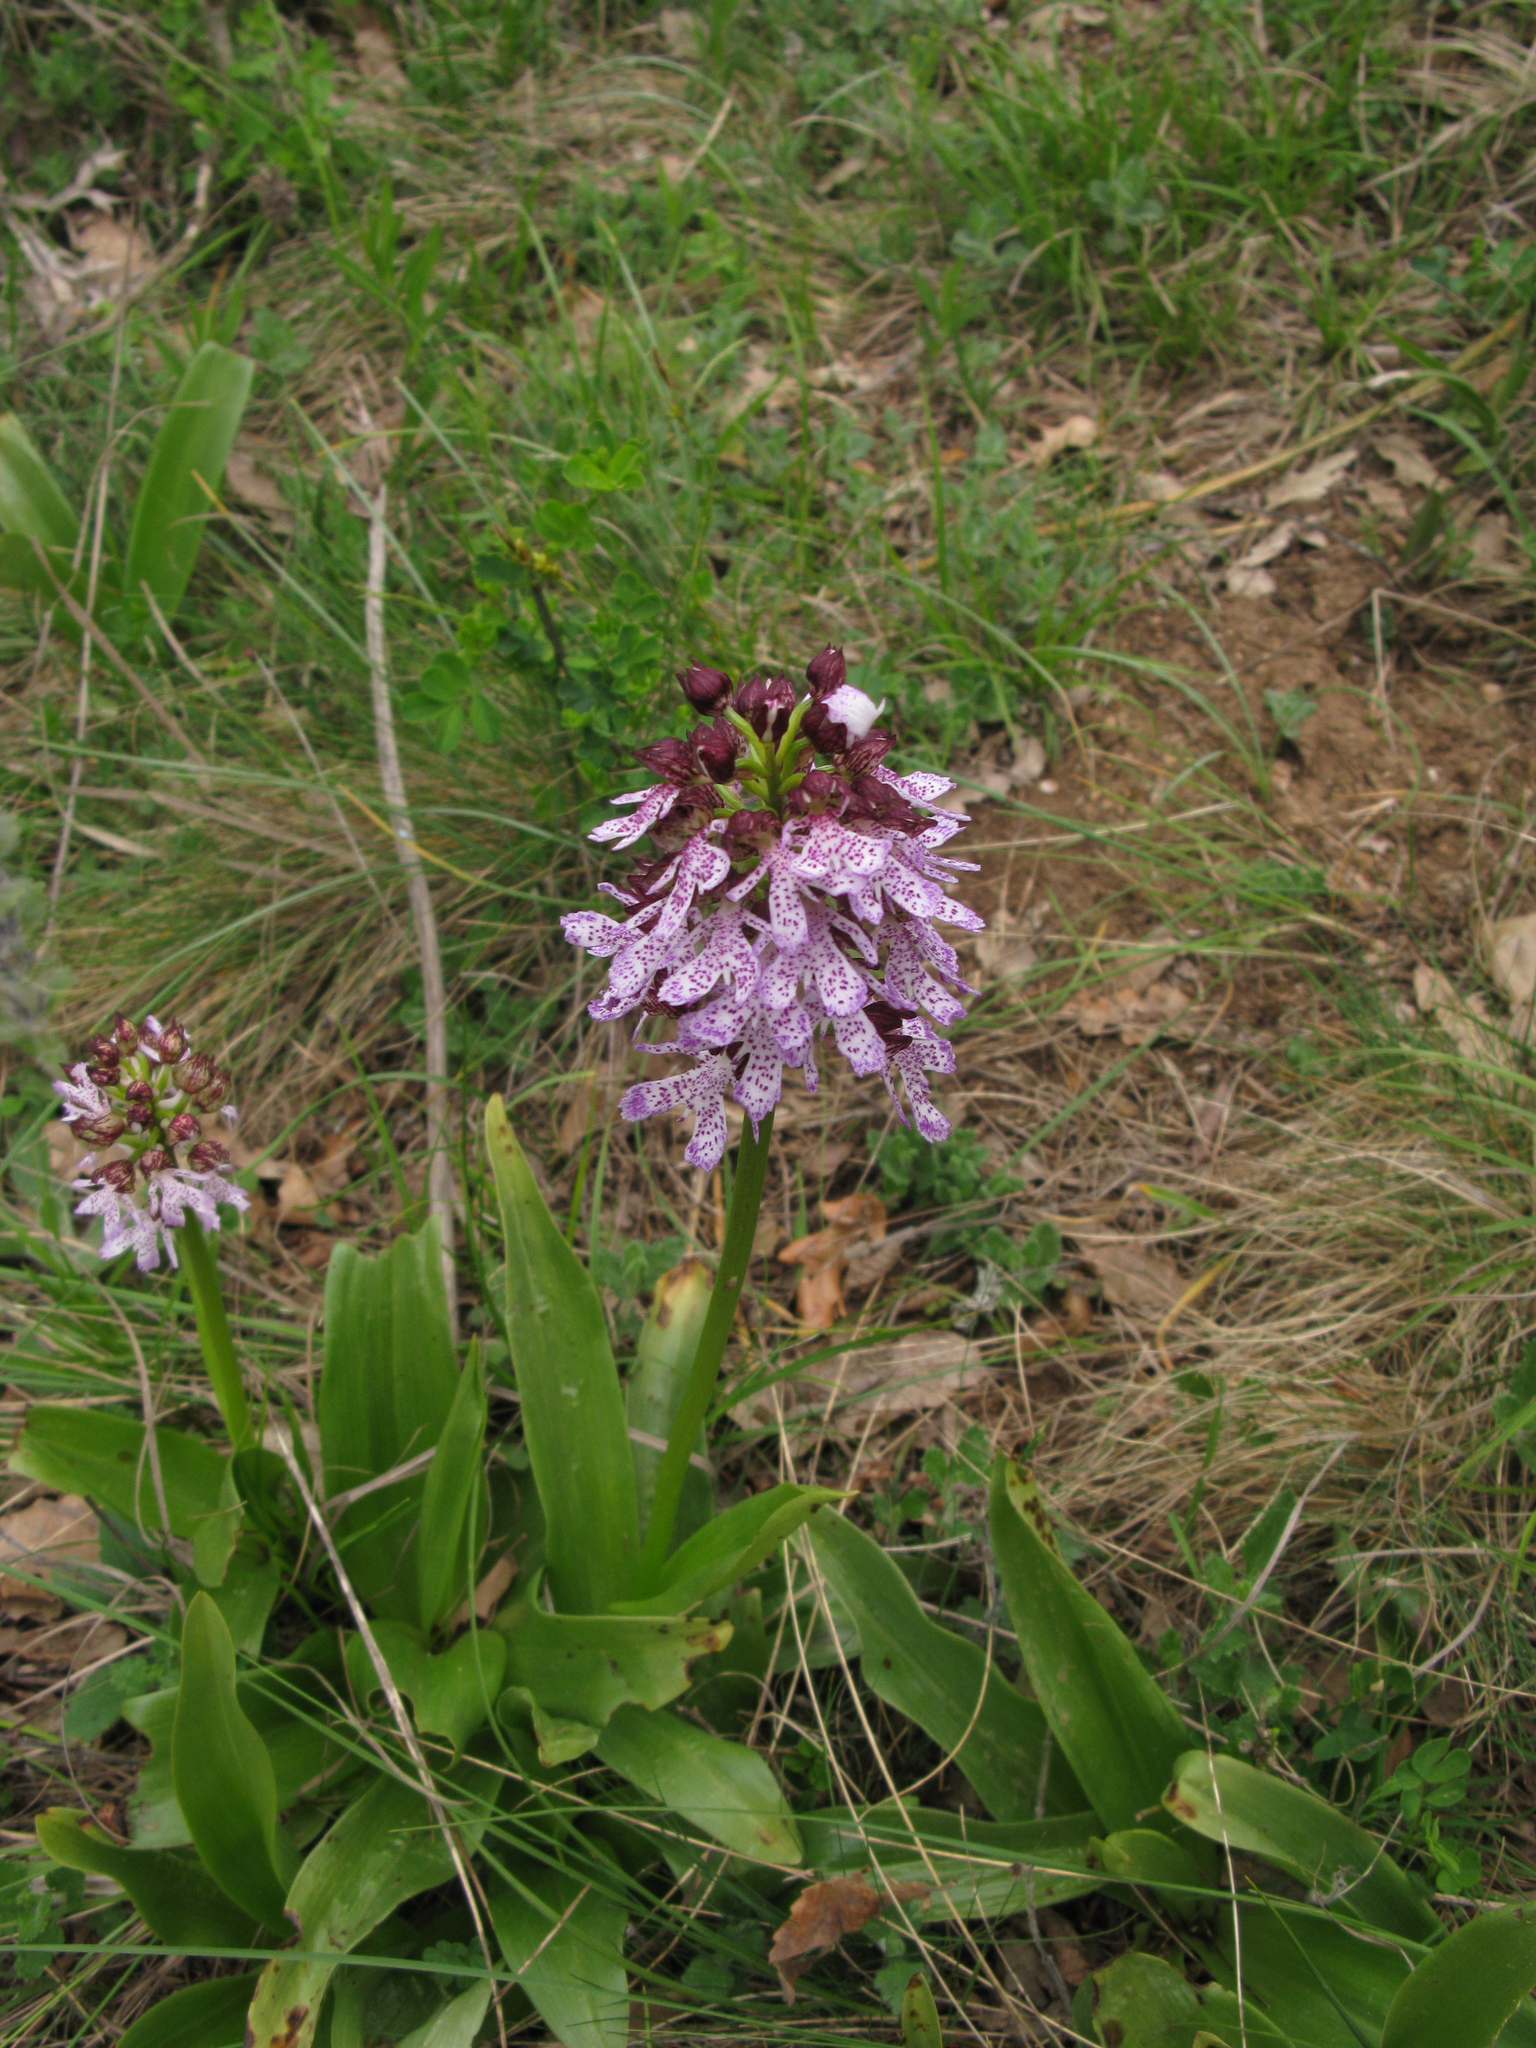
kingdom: Plantae
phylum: Tracheophyta
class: Liliopsida
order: Asparagales
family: Orchidaceae
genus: Orchis
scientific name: Orchis purpurea
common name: Lady orchid
